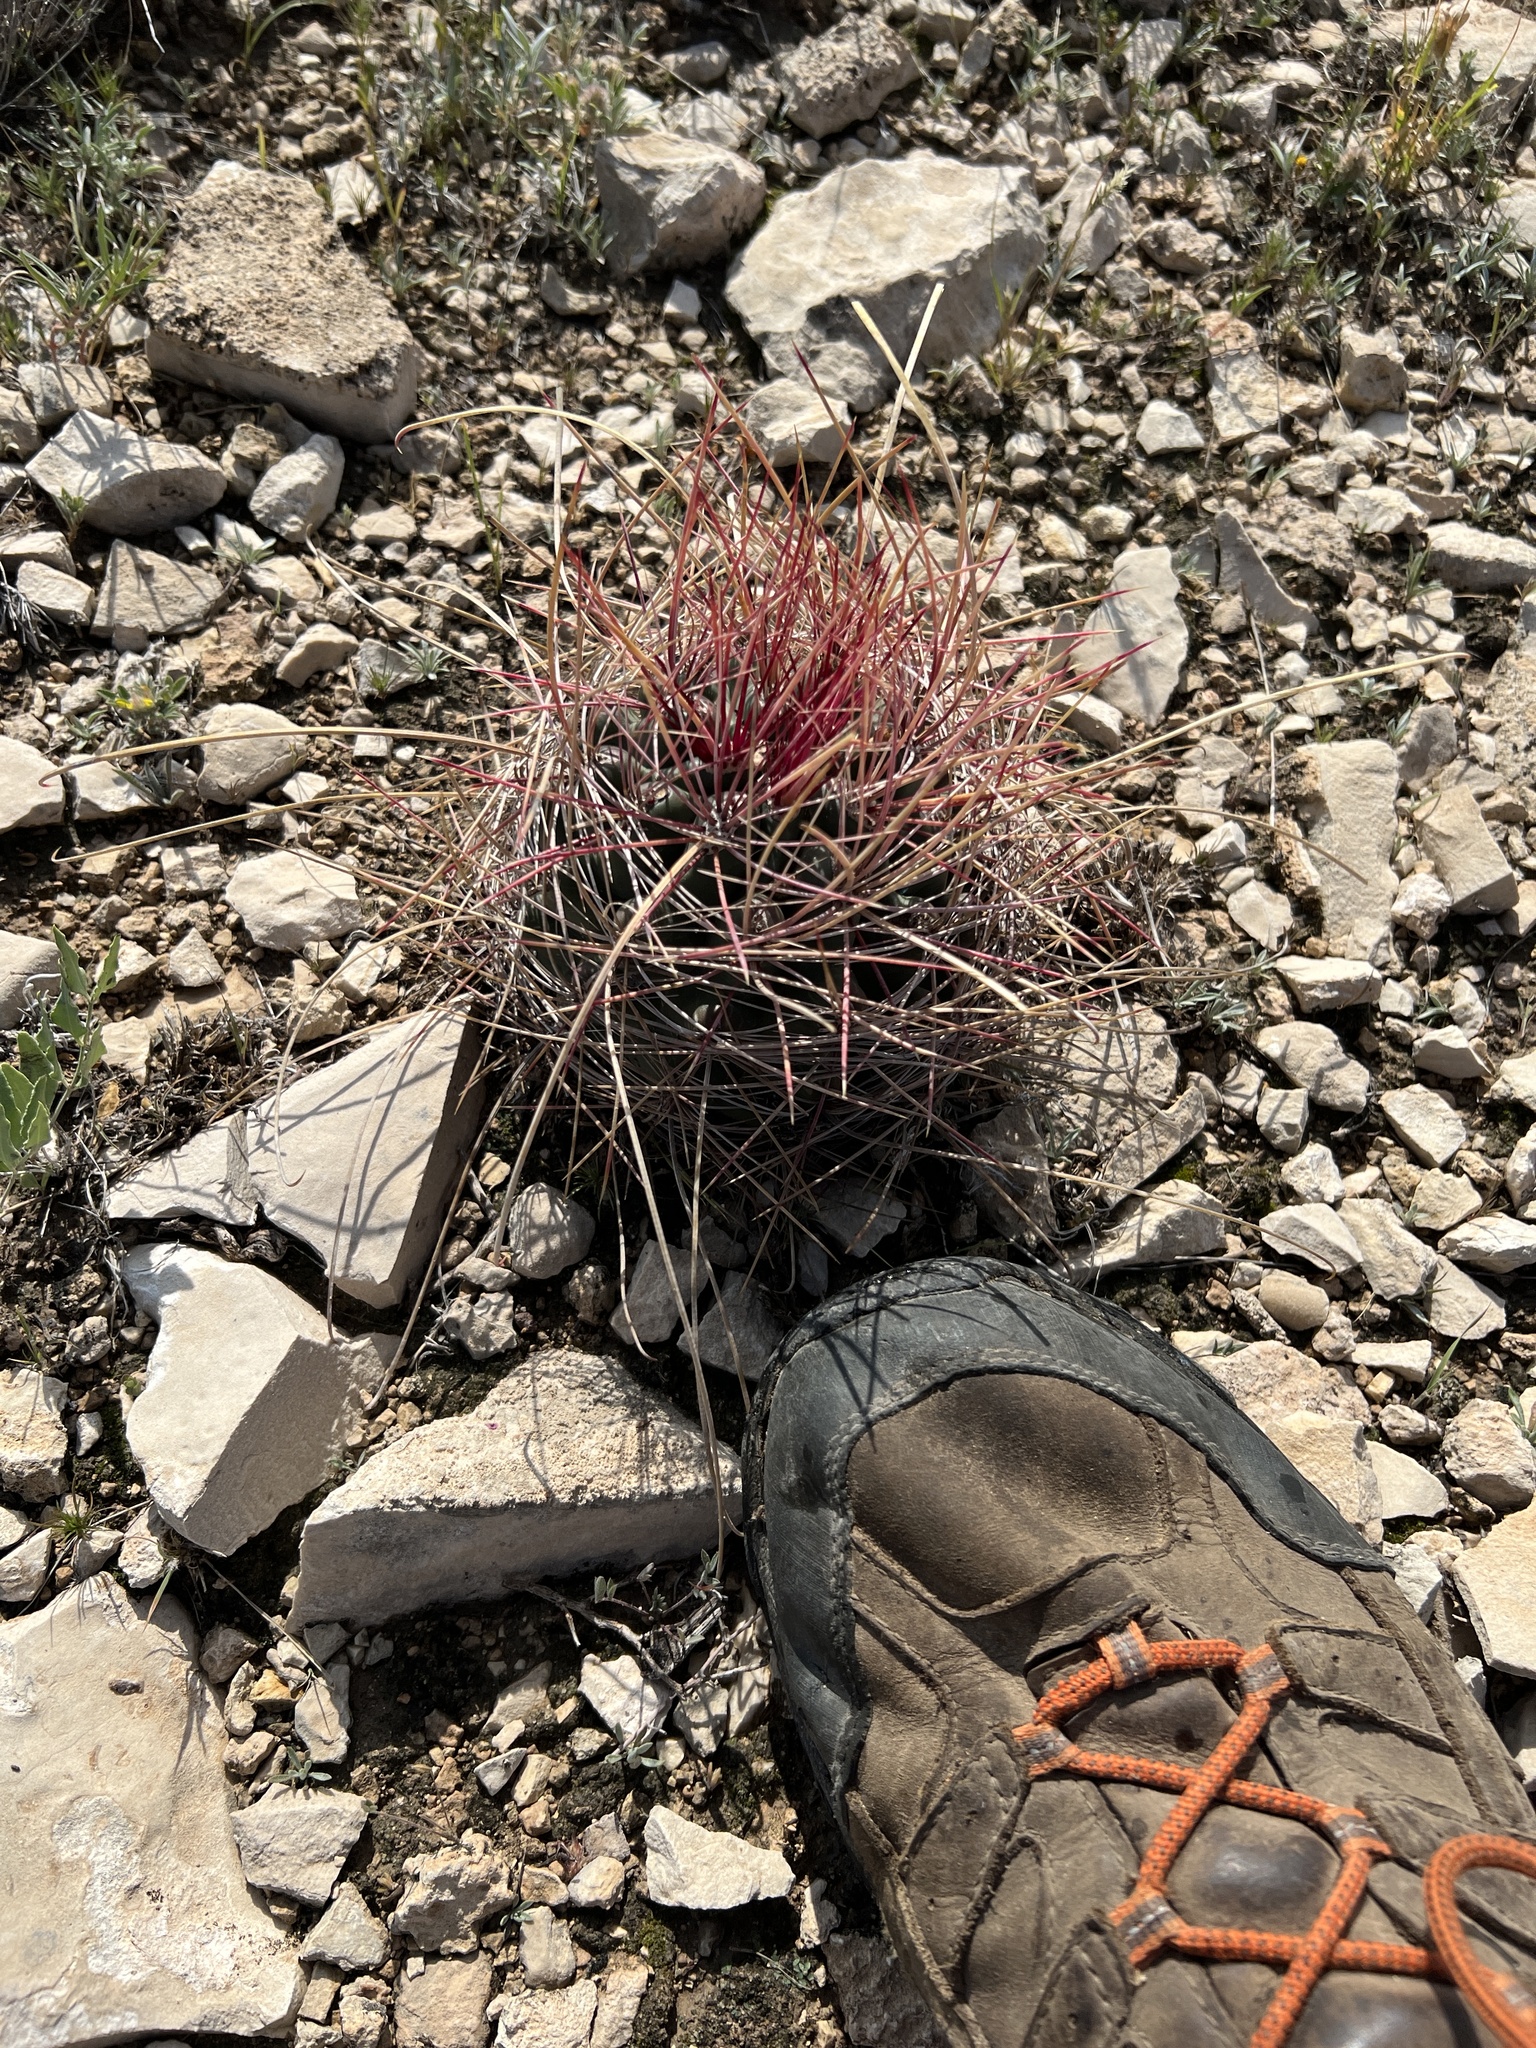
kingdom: Plantae
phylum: Tracheophyta
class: Magnoliopsida
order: Caryophyllales
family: Cactaceae
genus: Bisnaga
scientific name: Bisnaga hamatacantha
